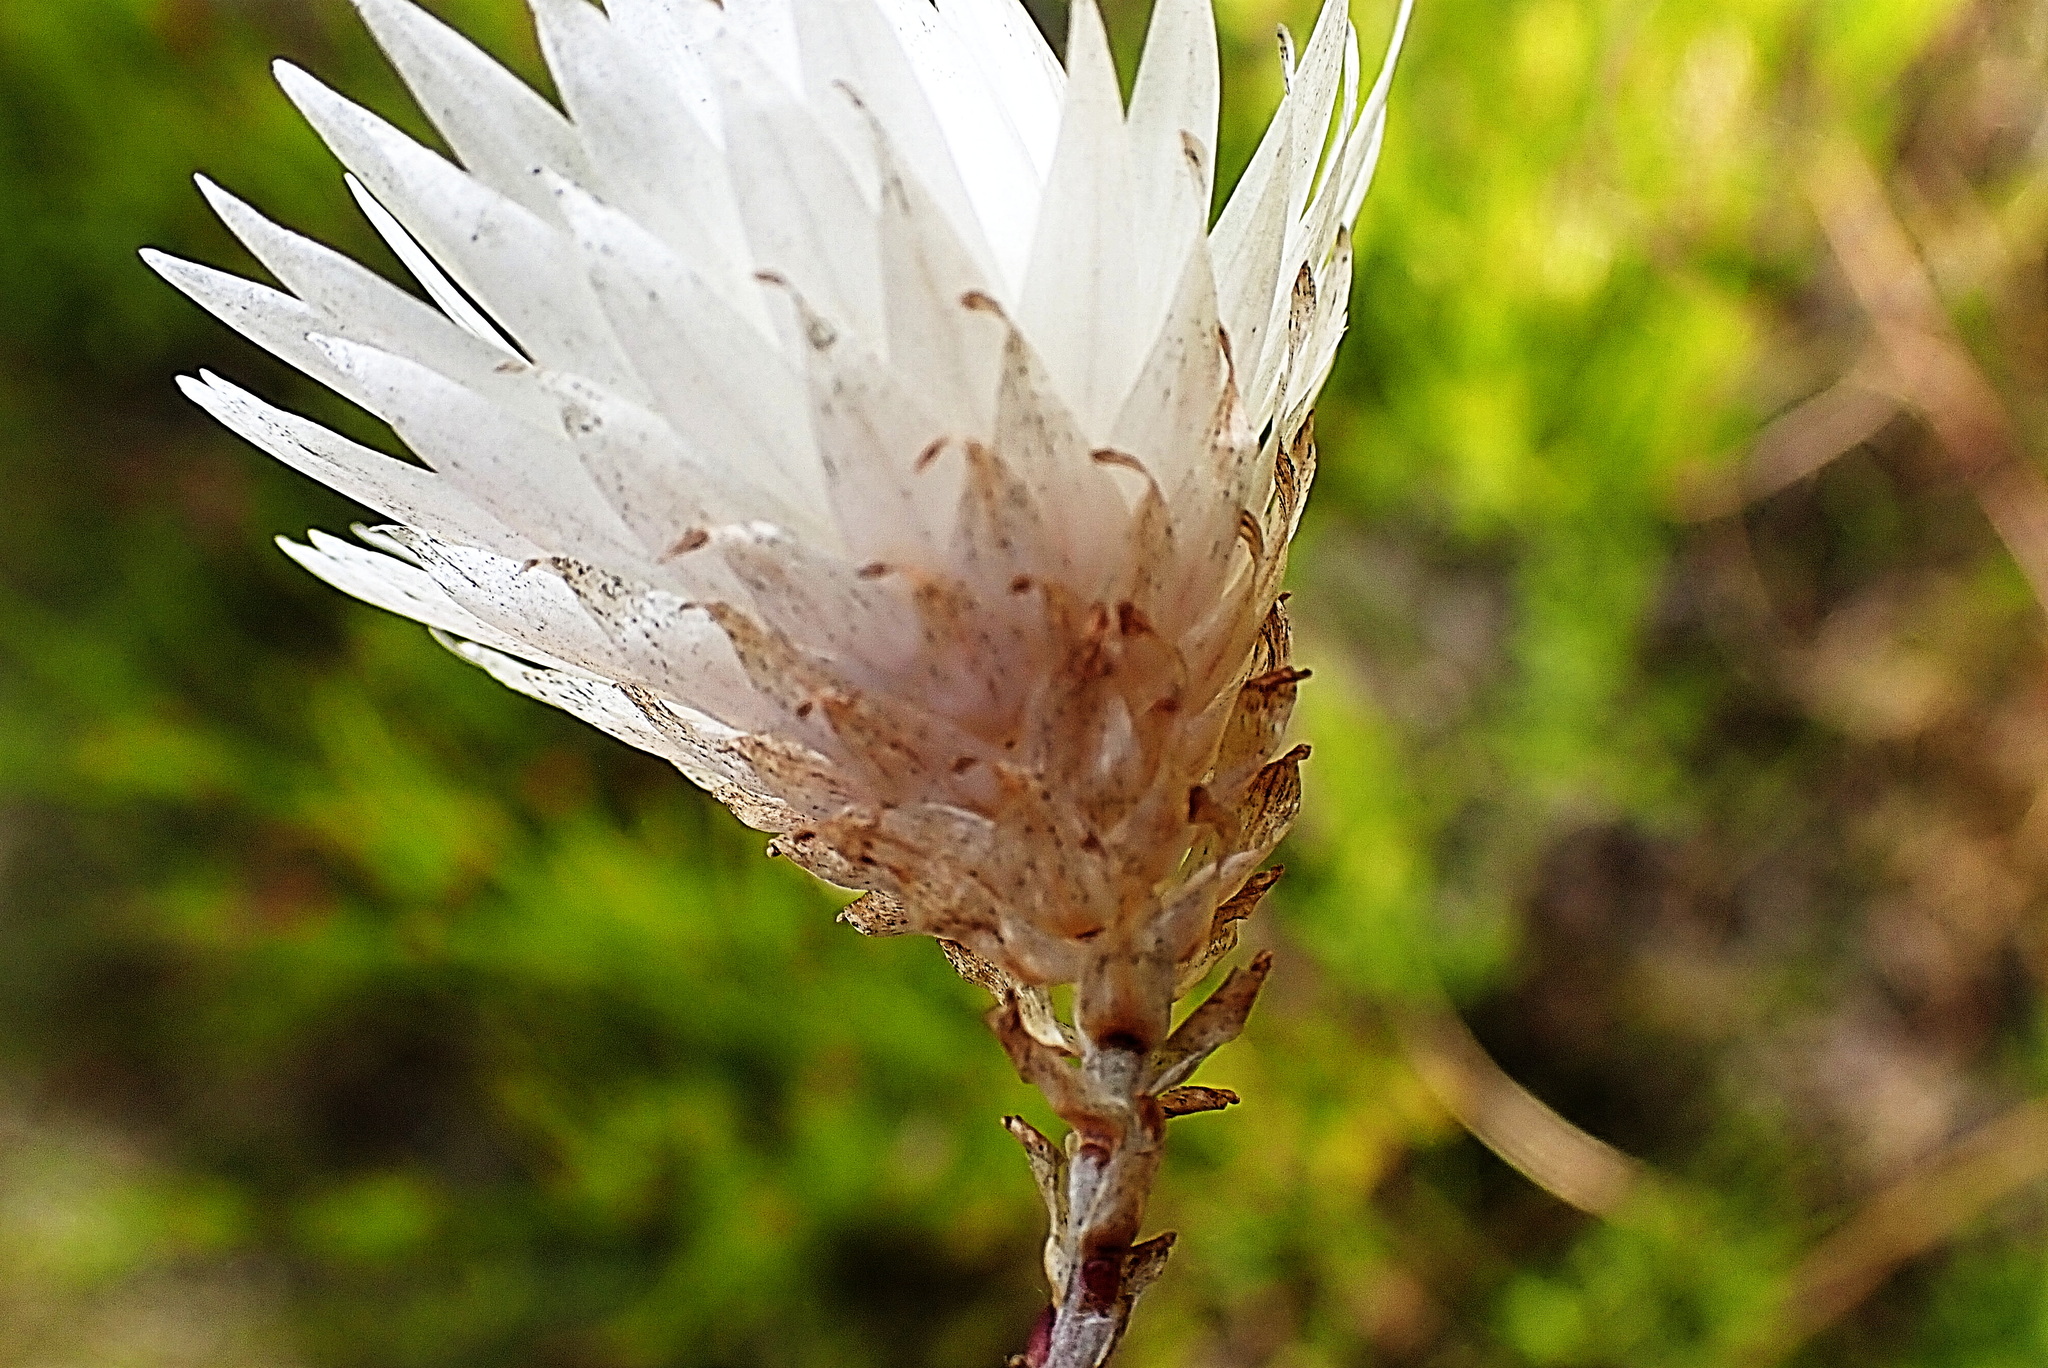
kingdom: Plantae
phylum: Tracheophyta
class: Magnoliopsida
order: Asterales
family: Asteraceae
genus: Edmondia
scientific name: Edmondia sesamoides
